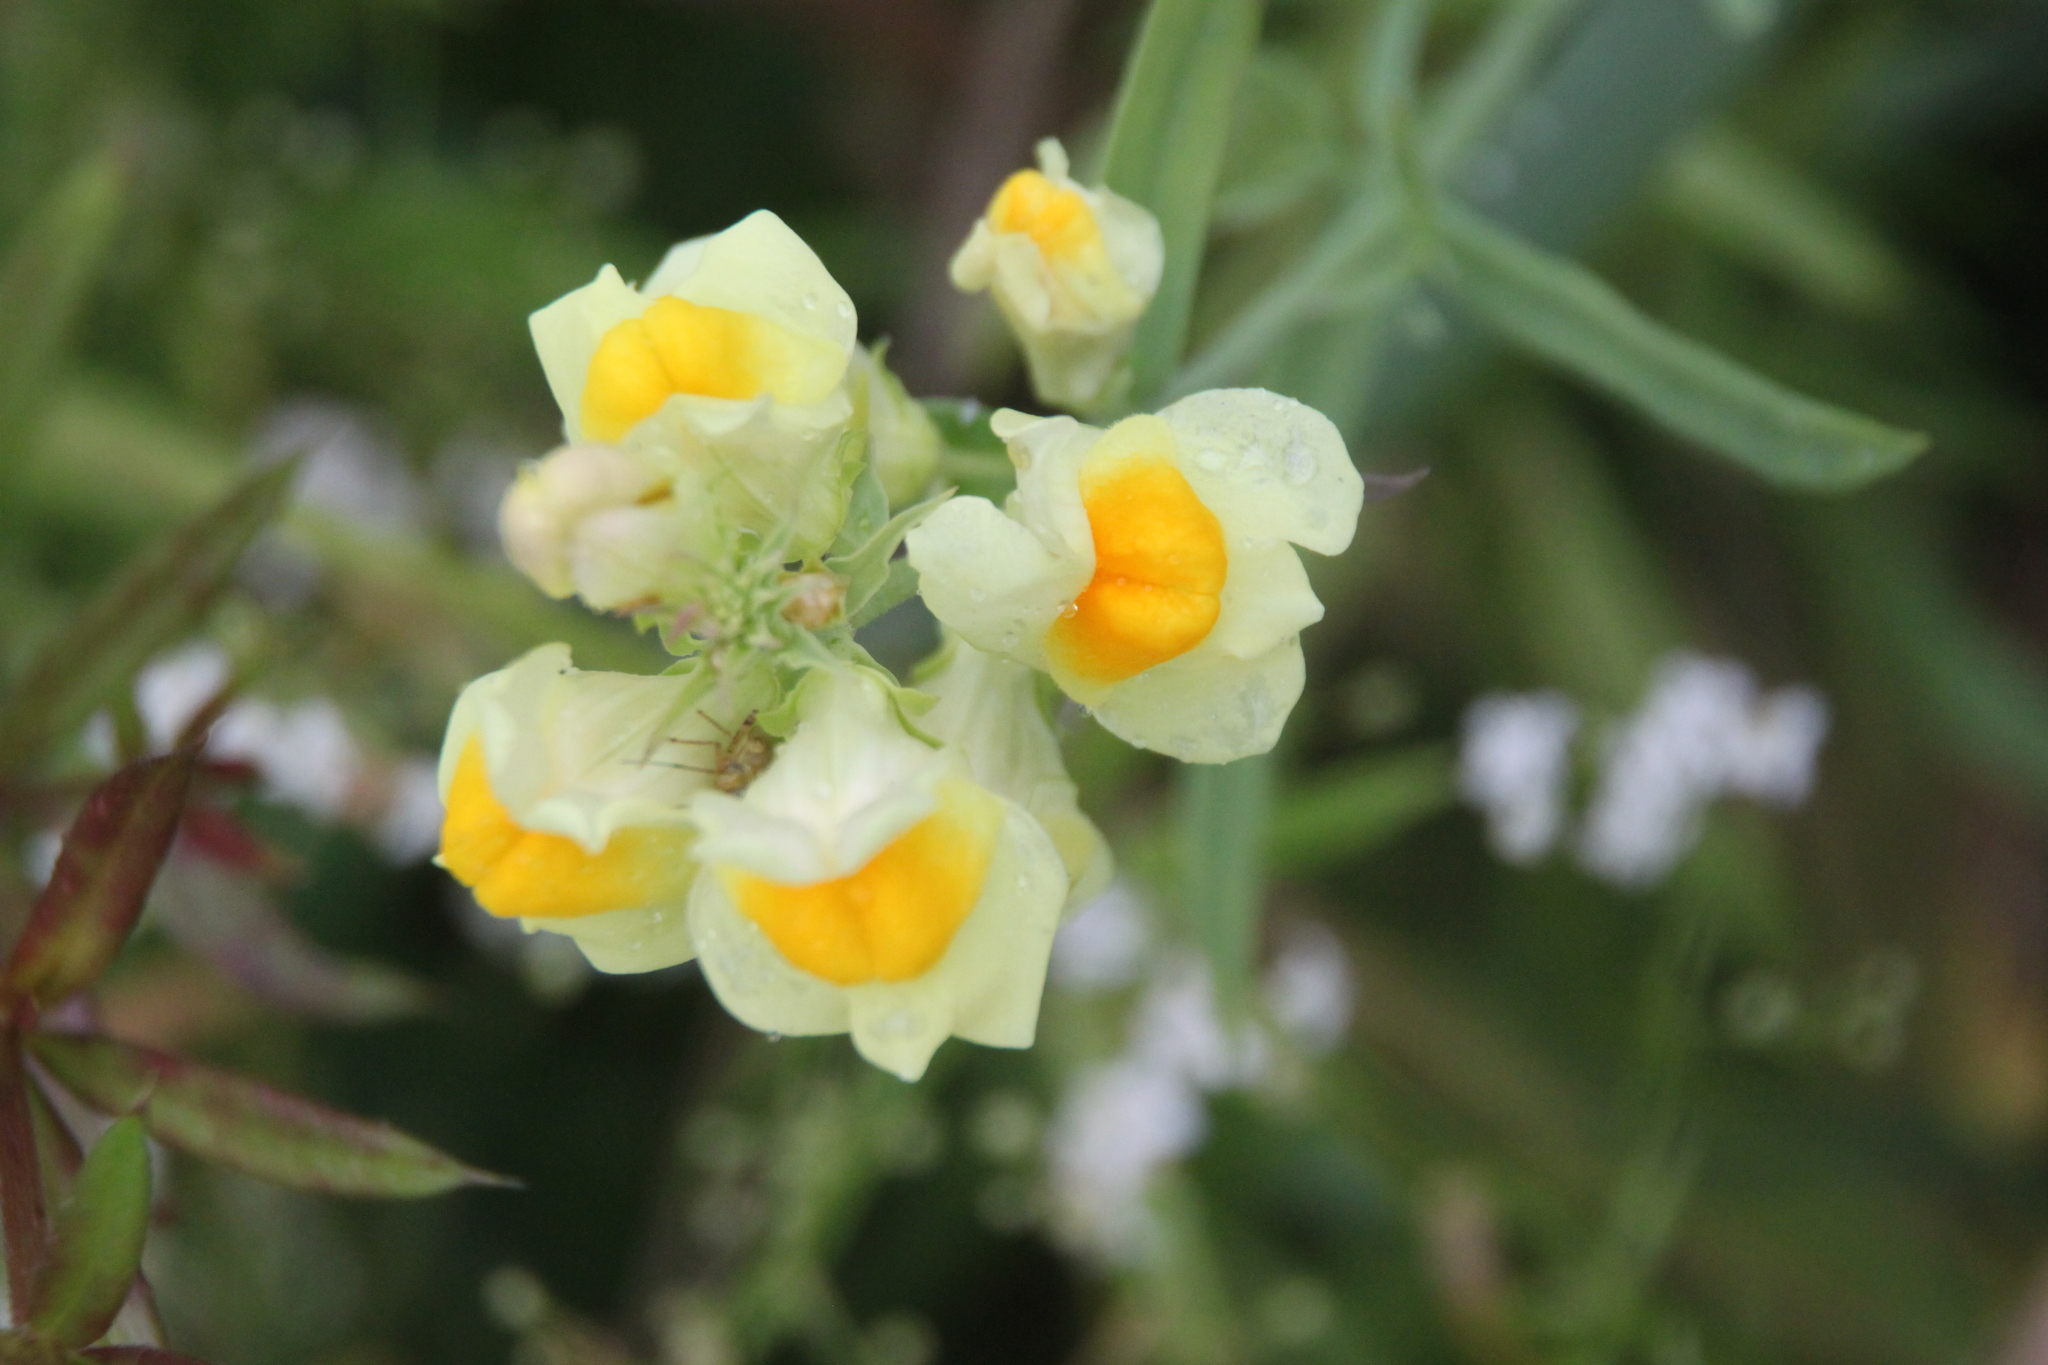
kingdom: Plantae
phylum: Tracheophyta
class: Magnoliopsida
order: Lamiales
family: Plantaginaceae
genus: Linaria
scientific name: Linaria vulgaris
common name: Butter and eggs
